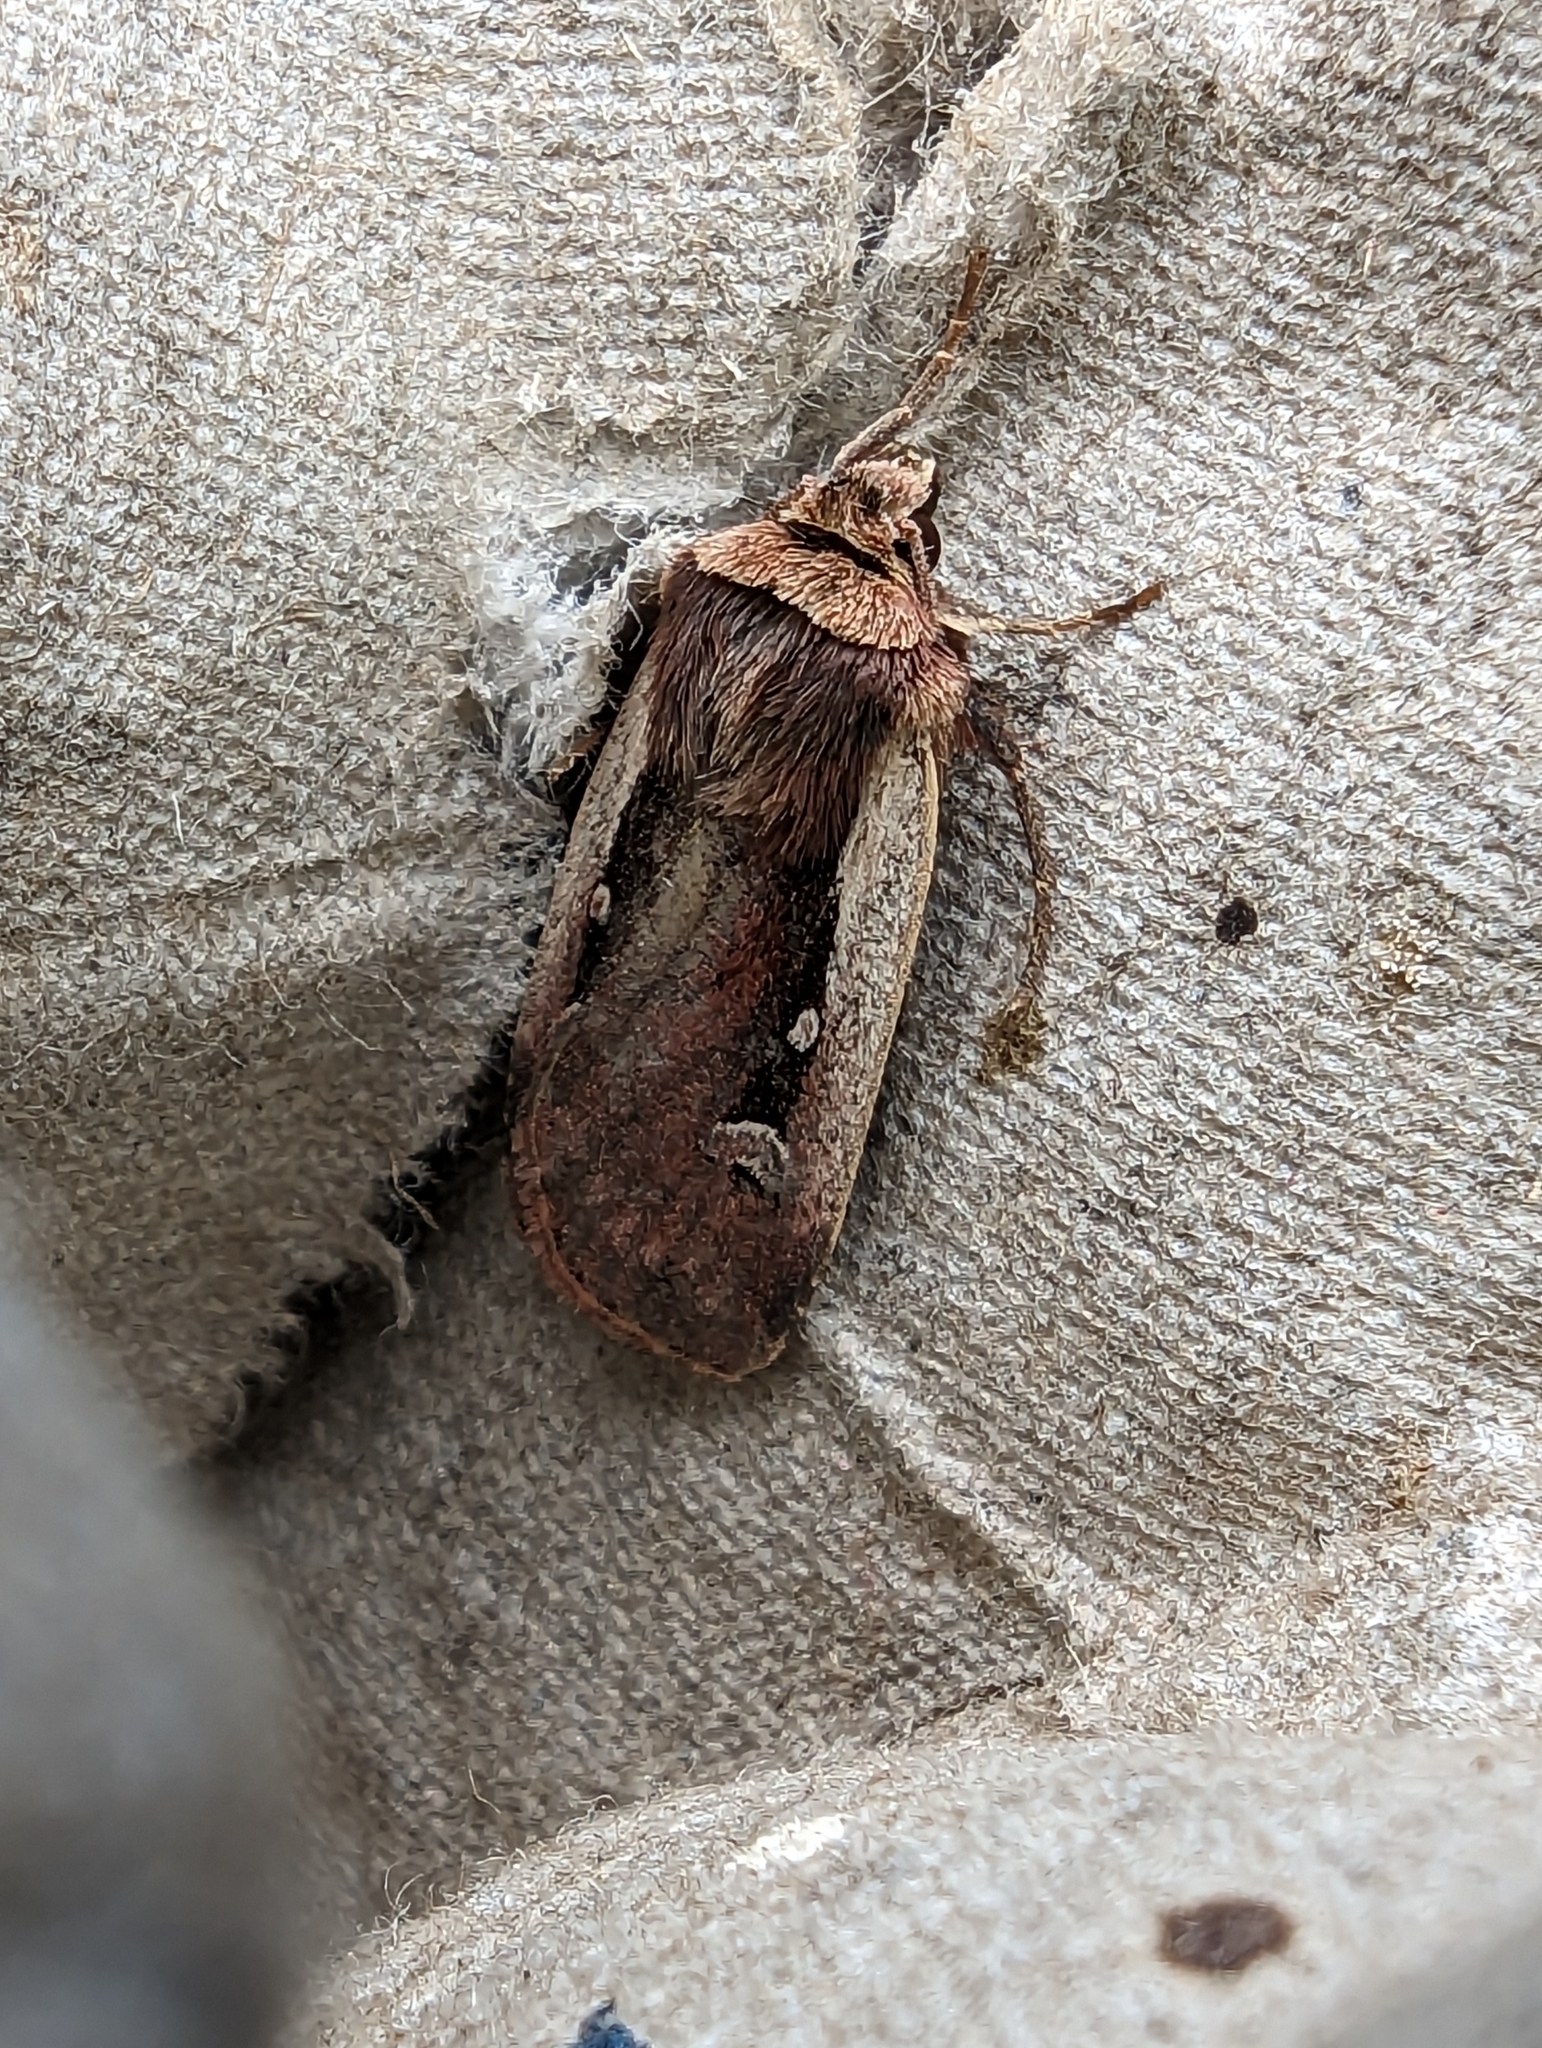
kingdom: Animalia
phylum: Arthropoda
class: Insecta
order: Lepidoptera
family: Noctuidae
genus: Ochropleura
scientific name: Ochropleura plecta
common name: Flame shoulder
